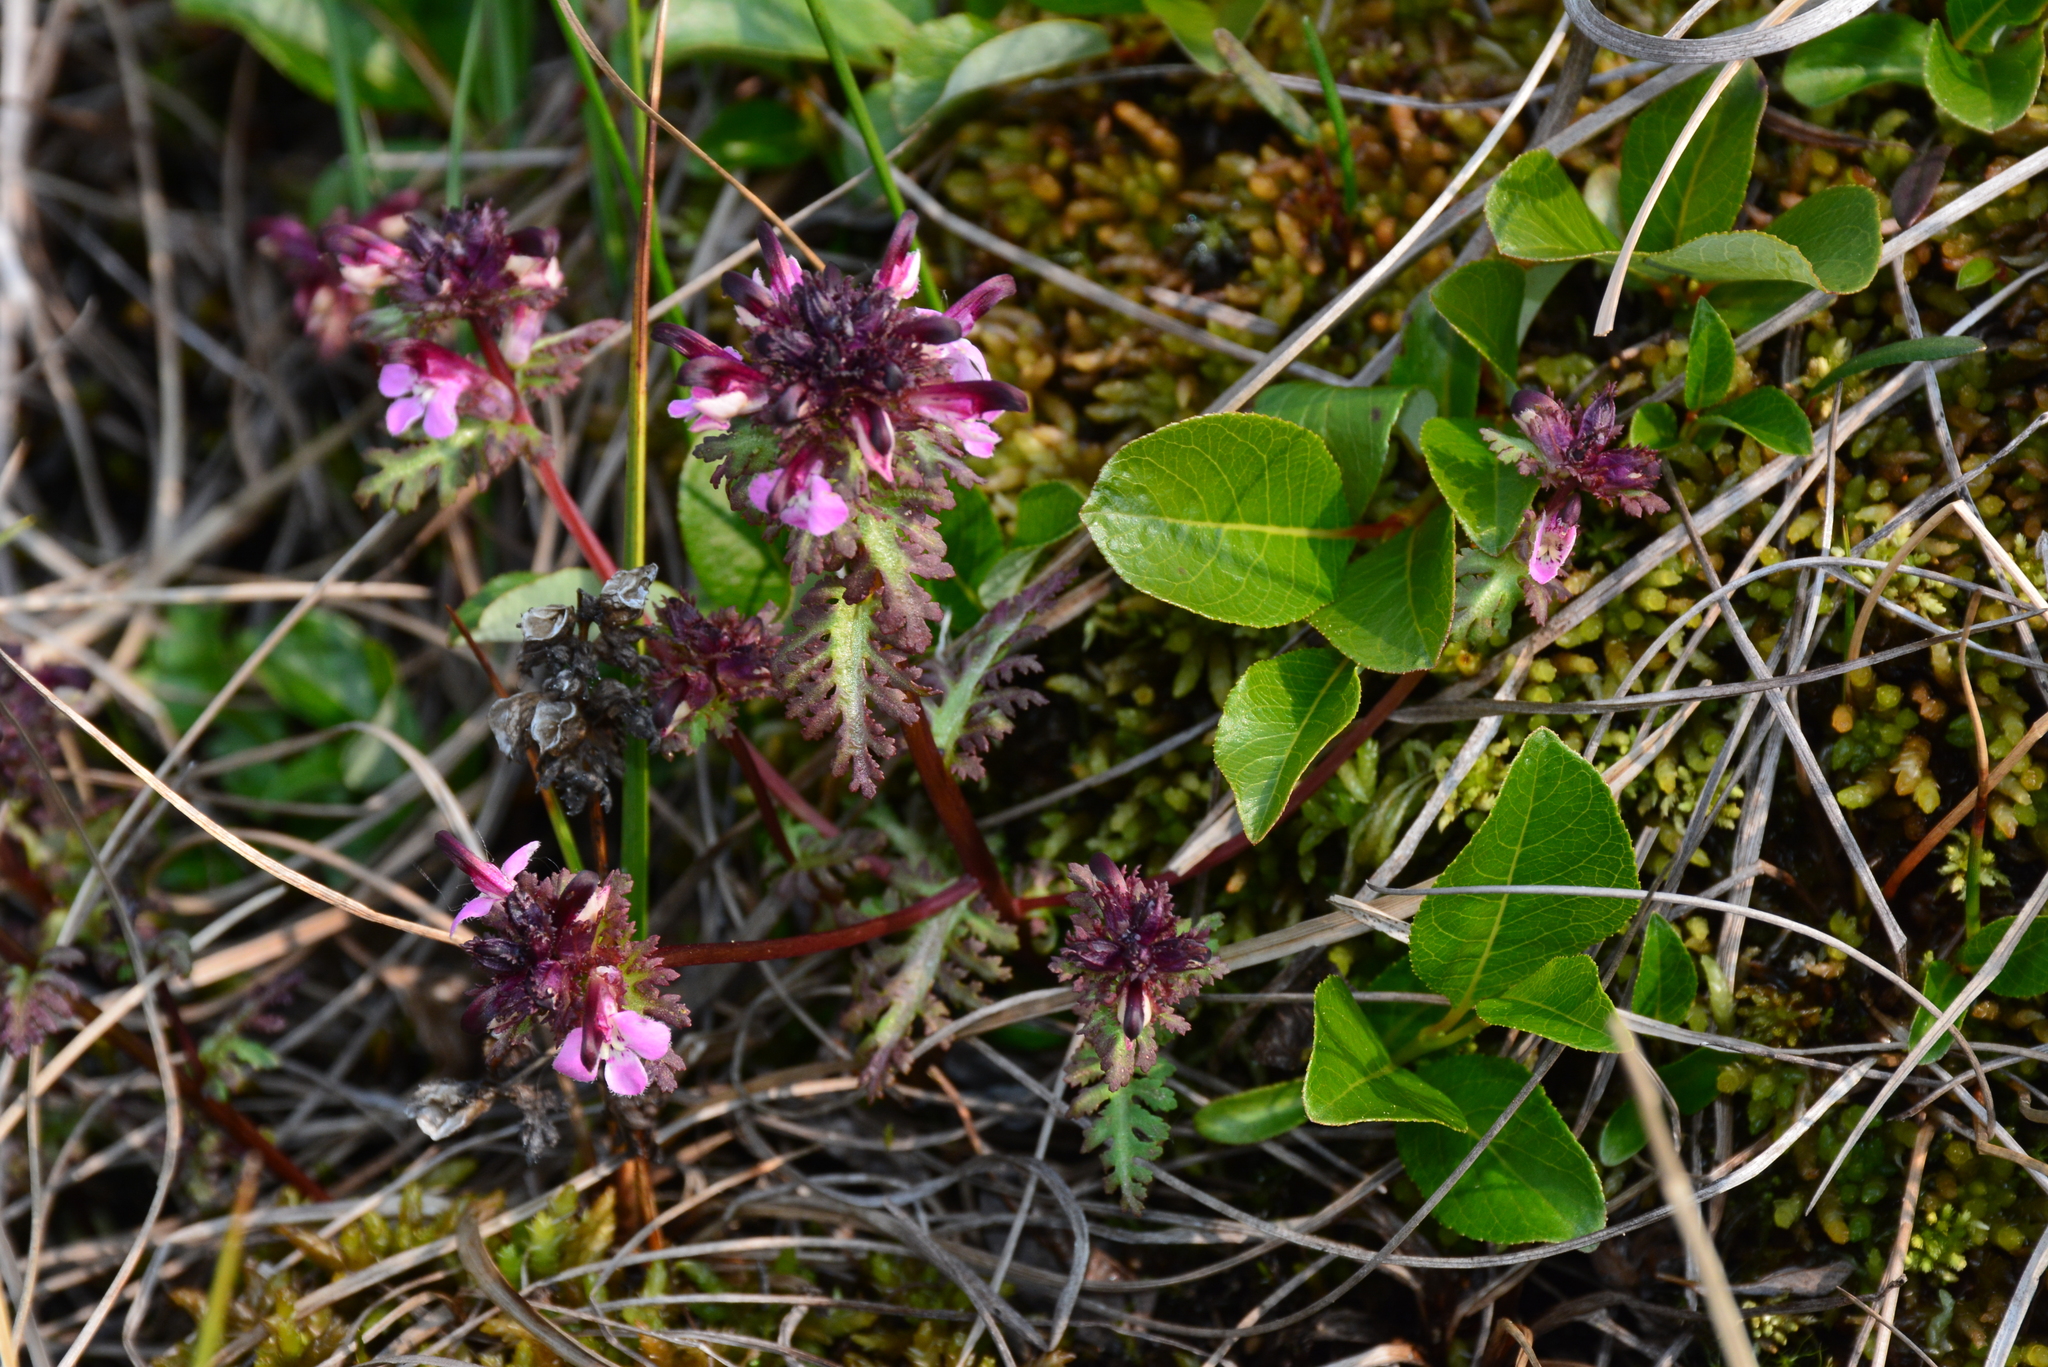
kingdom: Plantae
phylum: Tracheophyta
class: Magnoliopsida
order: Lamiales
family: Orobanchaceae
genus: Pedicularis
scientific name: Pedicularis pennellii
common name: Pennell's lousewort
